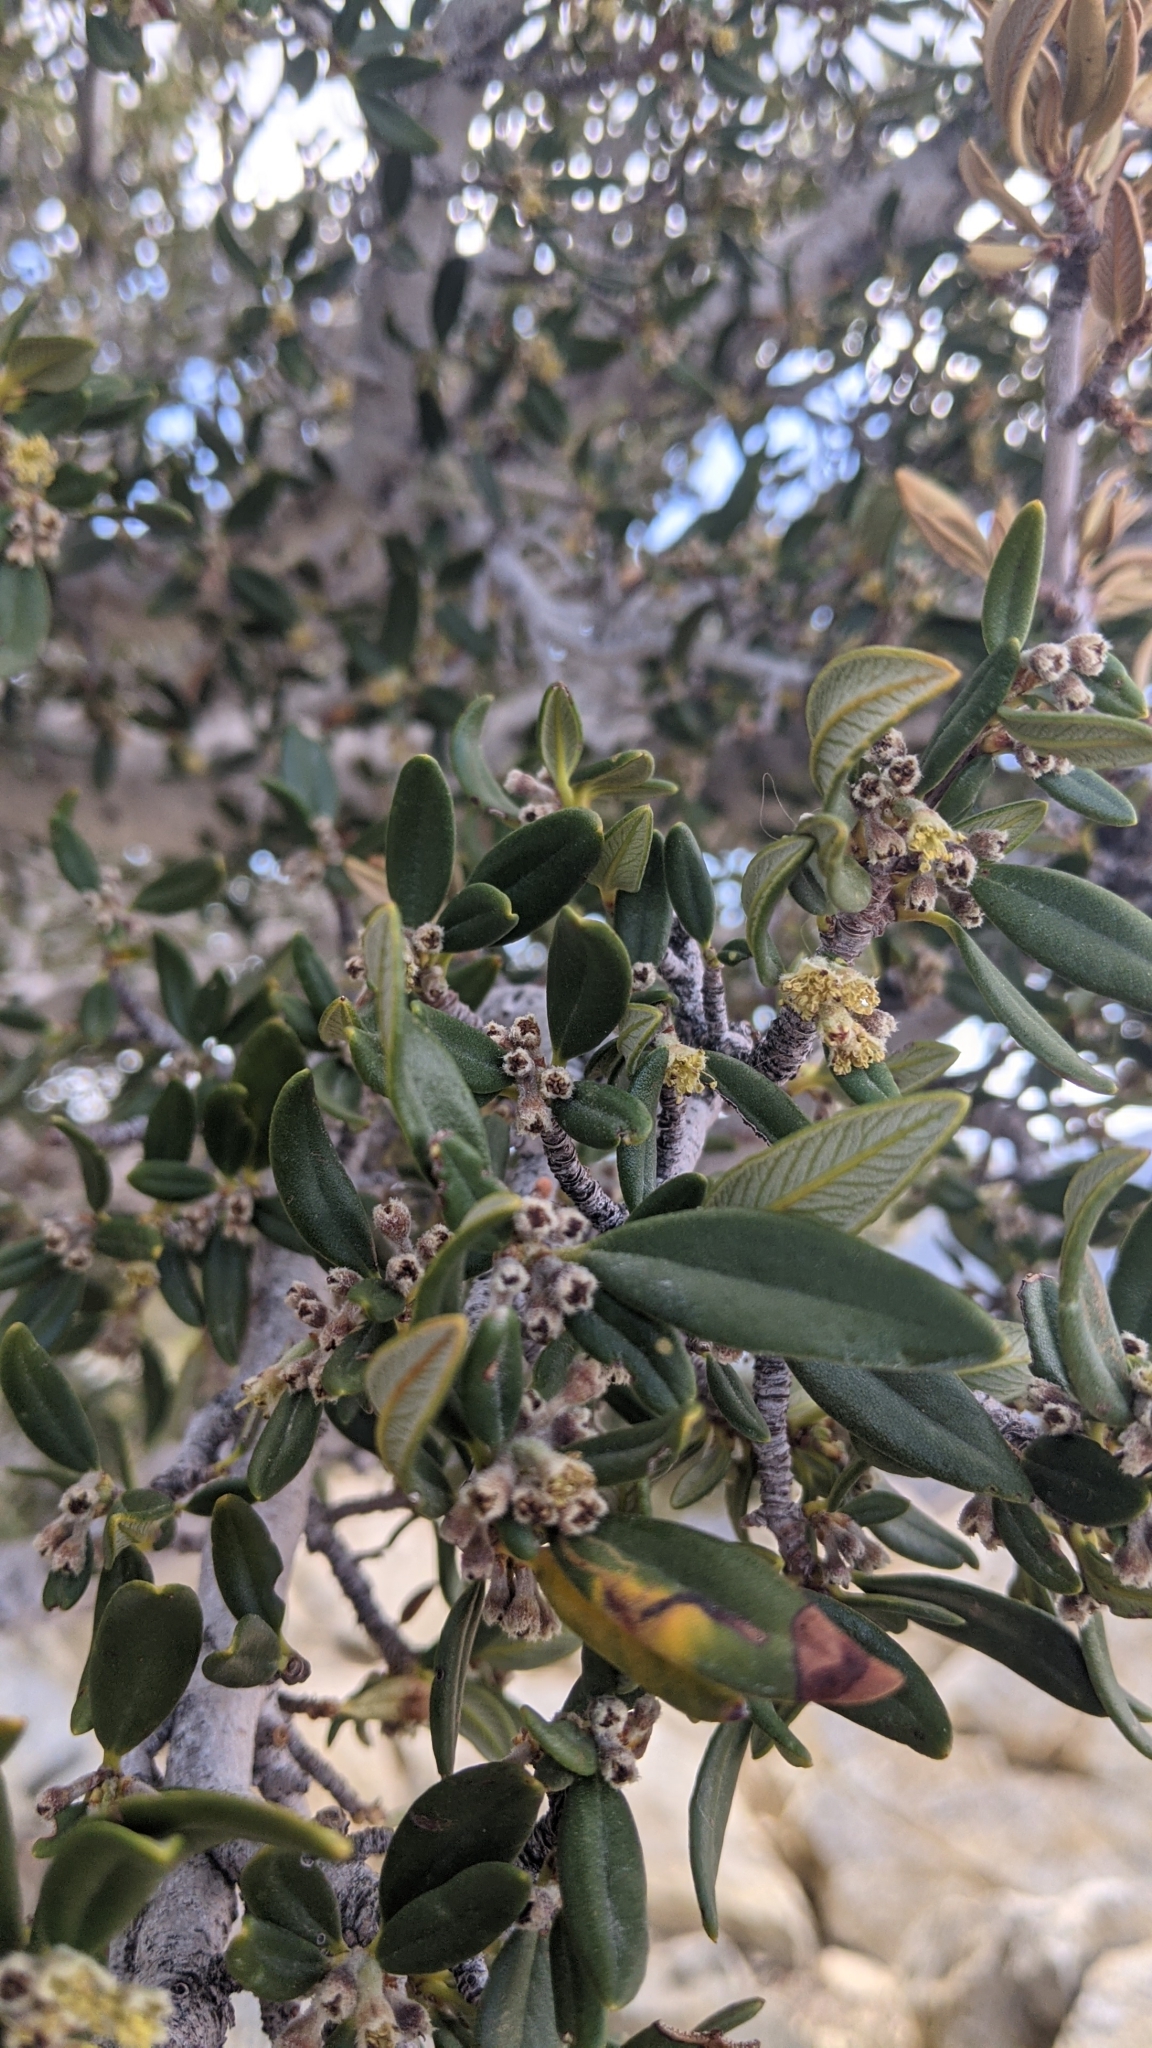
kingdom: Plantae
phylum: Tracheophyta
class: Magnoliopsida
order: Rosales
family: Rosaceae
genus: Cercocarpus
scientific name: Cercocarpus ledifolius
